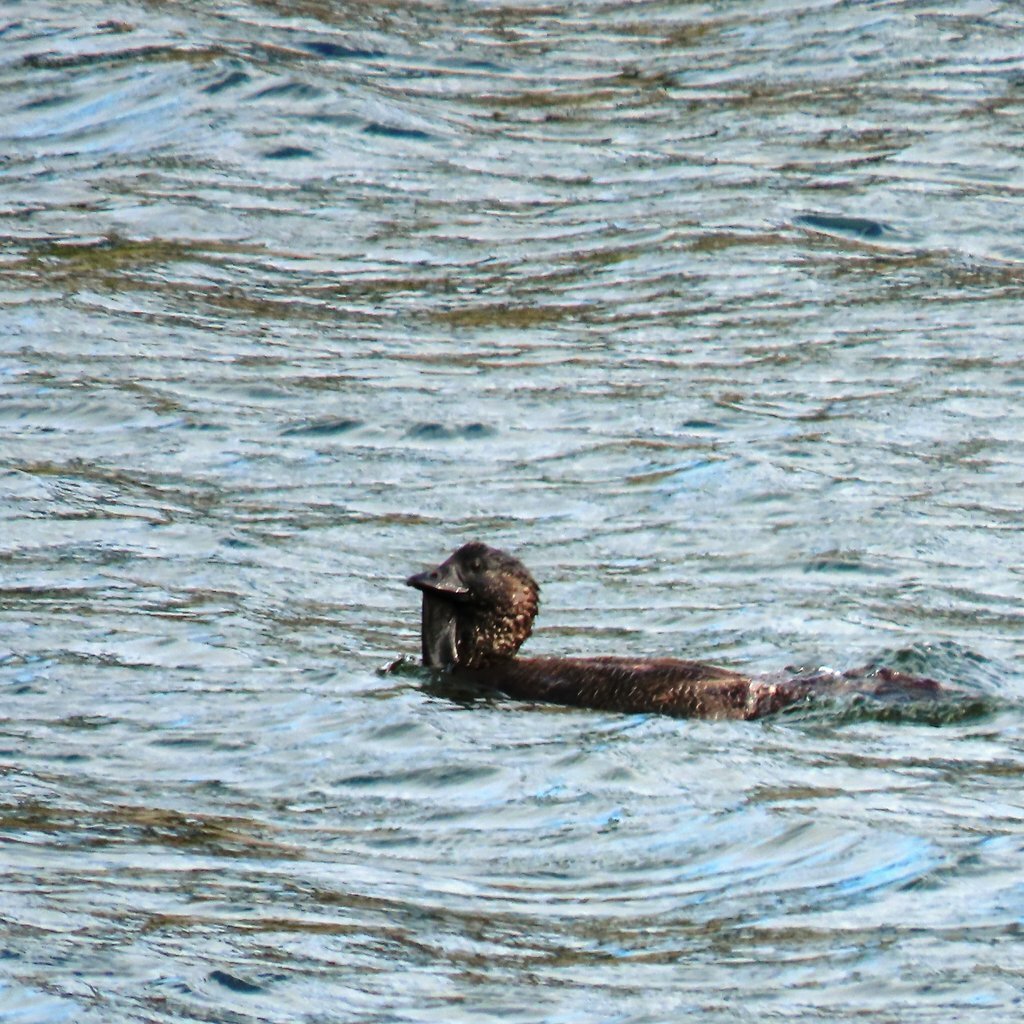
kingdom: Animalia
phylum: Chordata
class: Aves
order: Anseriformes
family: Anatidae
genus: Biziura
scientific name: Biziura lobata
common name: Musk duck
